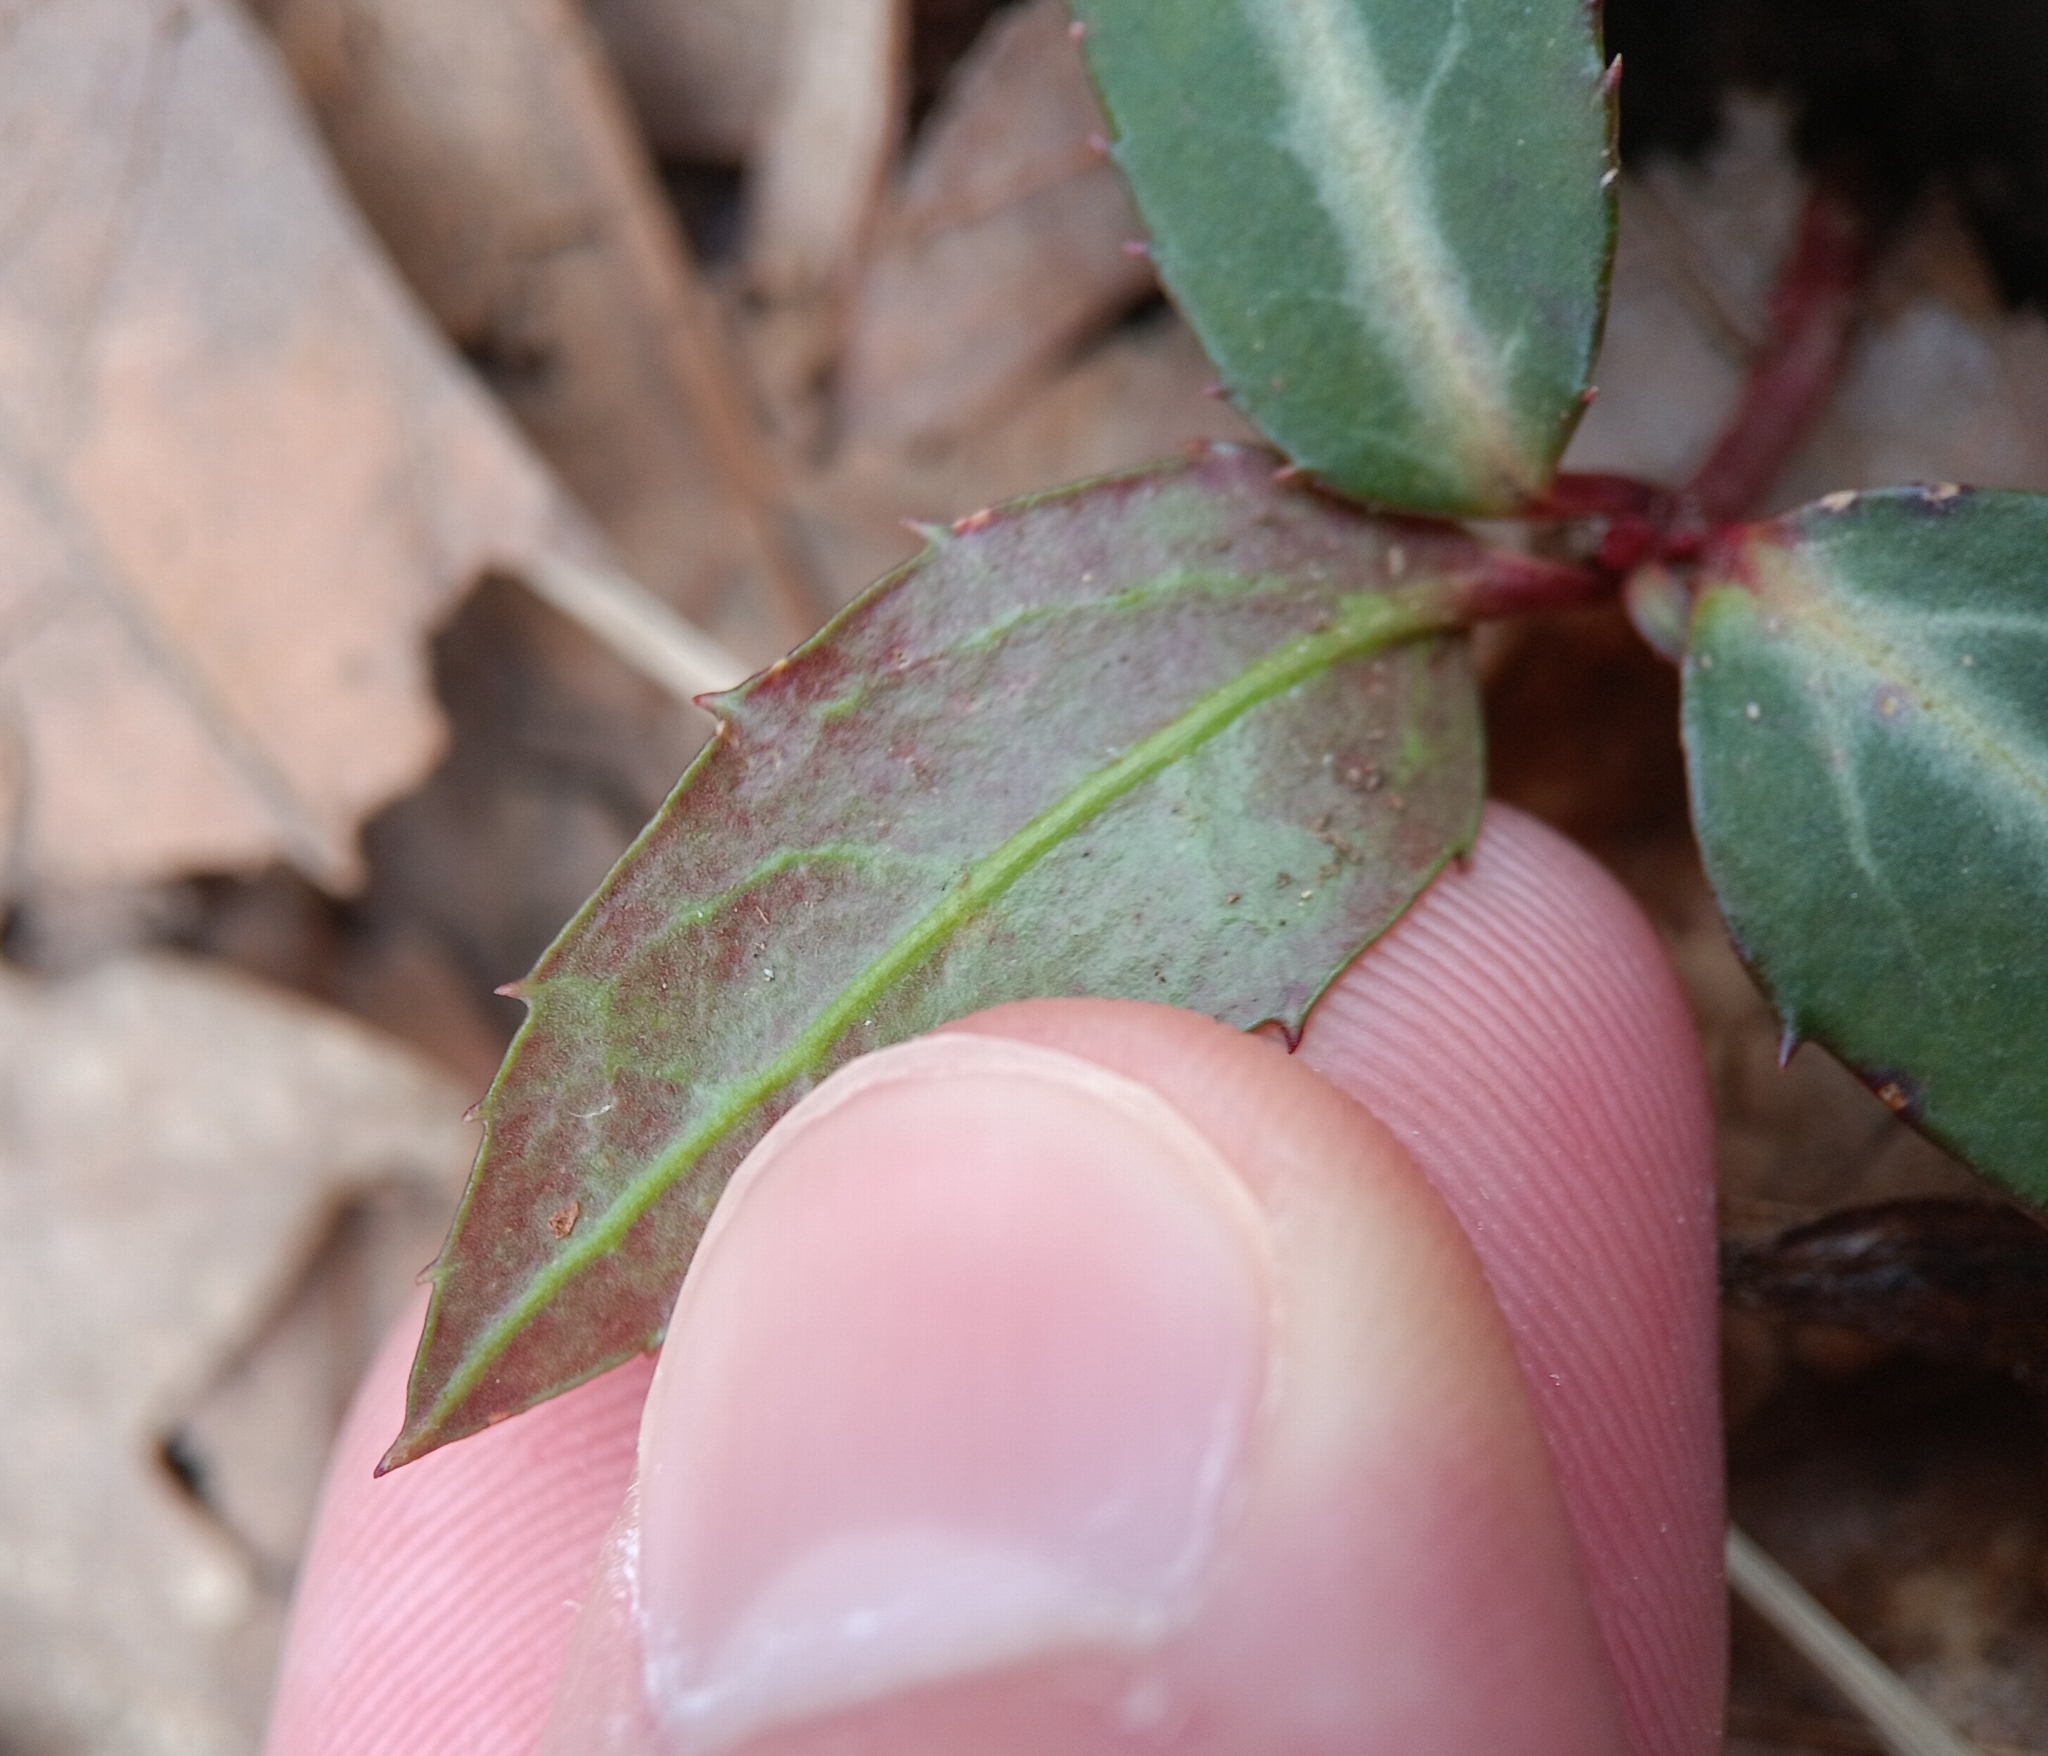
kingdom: Plantae
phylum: Tracheophyta
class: Magnoliopsida
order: Ericales
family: Ericaceae
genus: Chimaphila
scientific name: Chimaphila maculata
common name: Spotted pipsissewa
